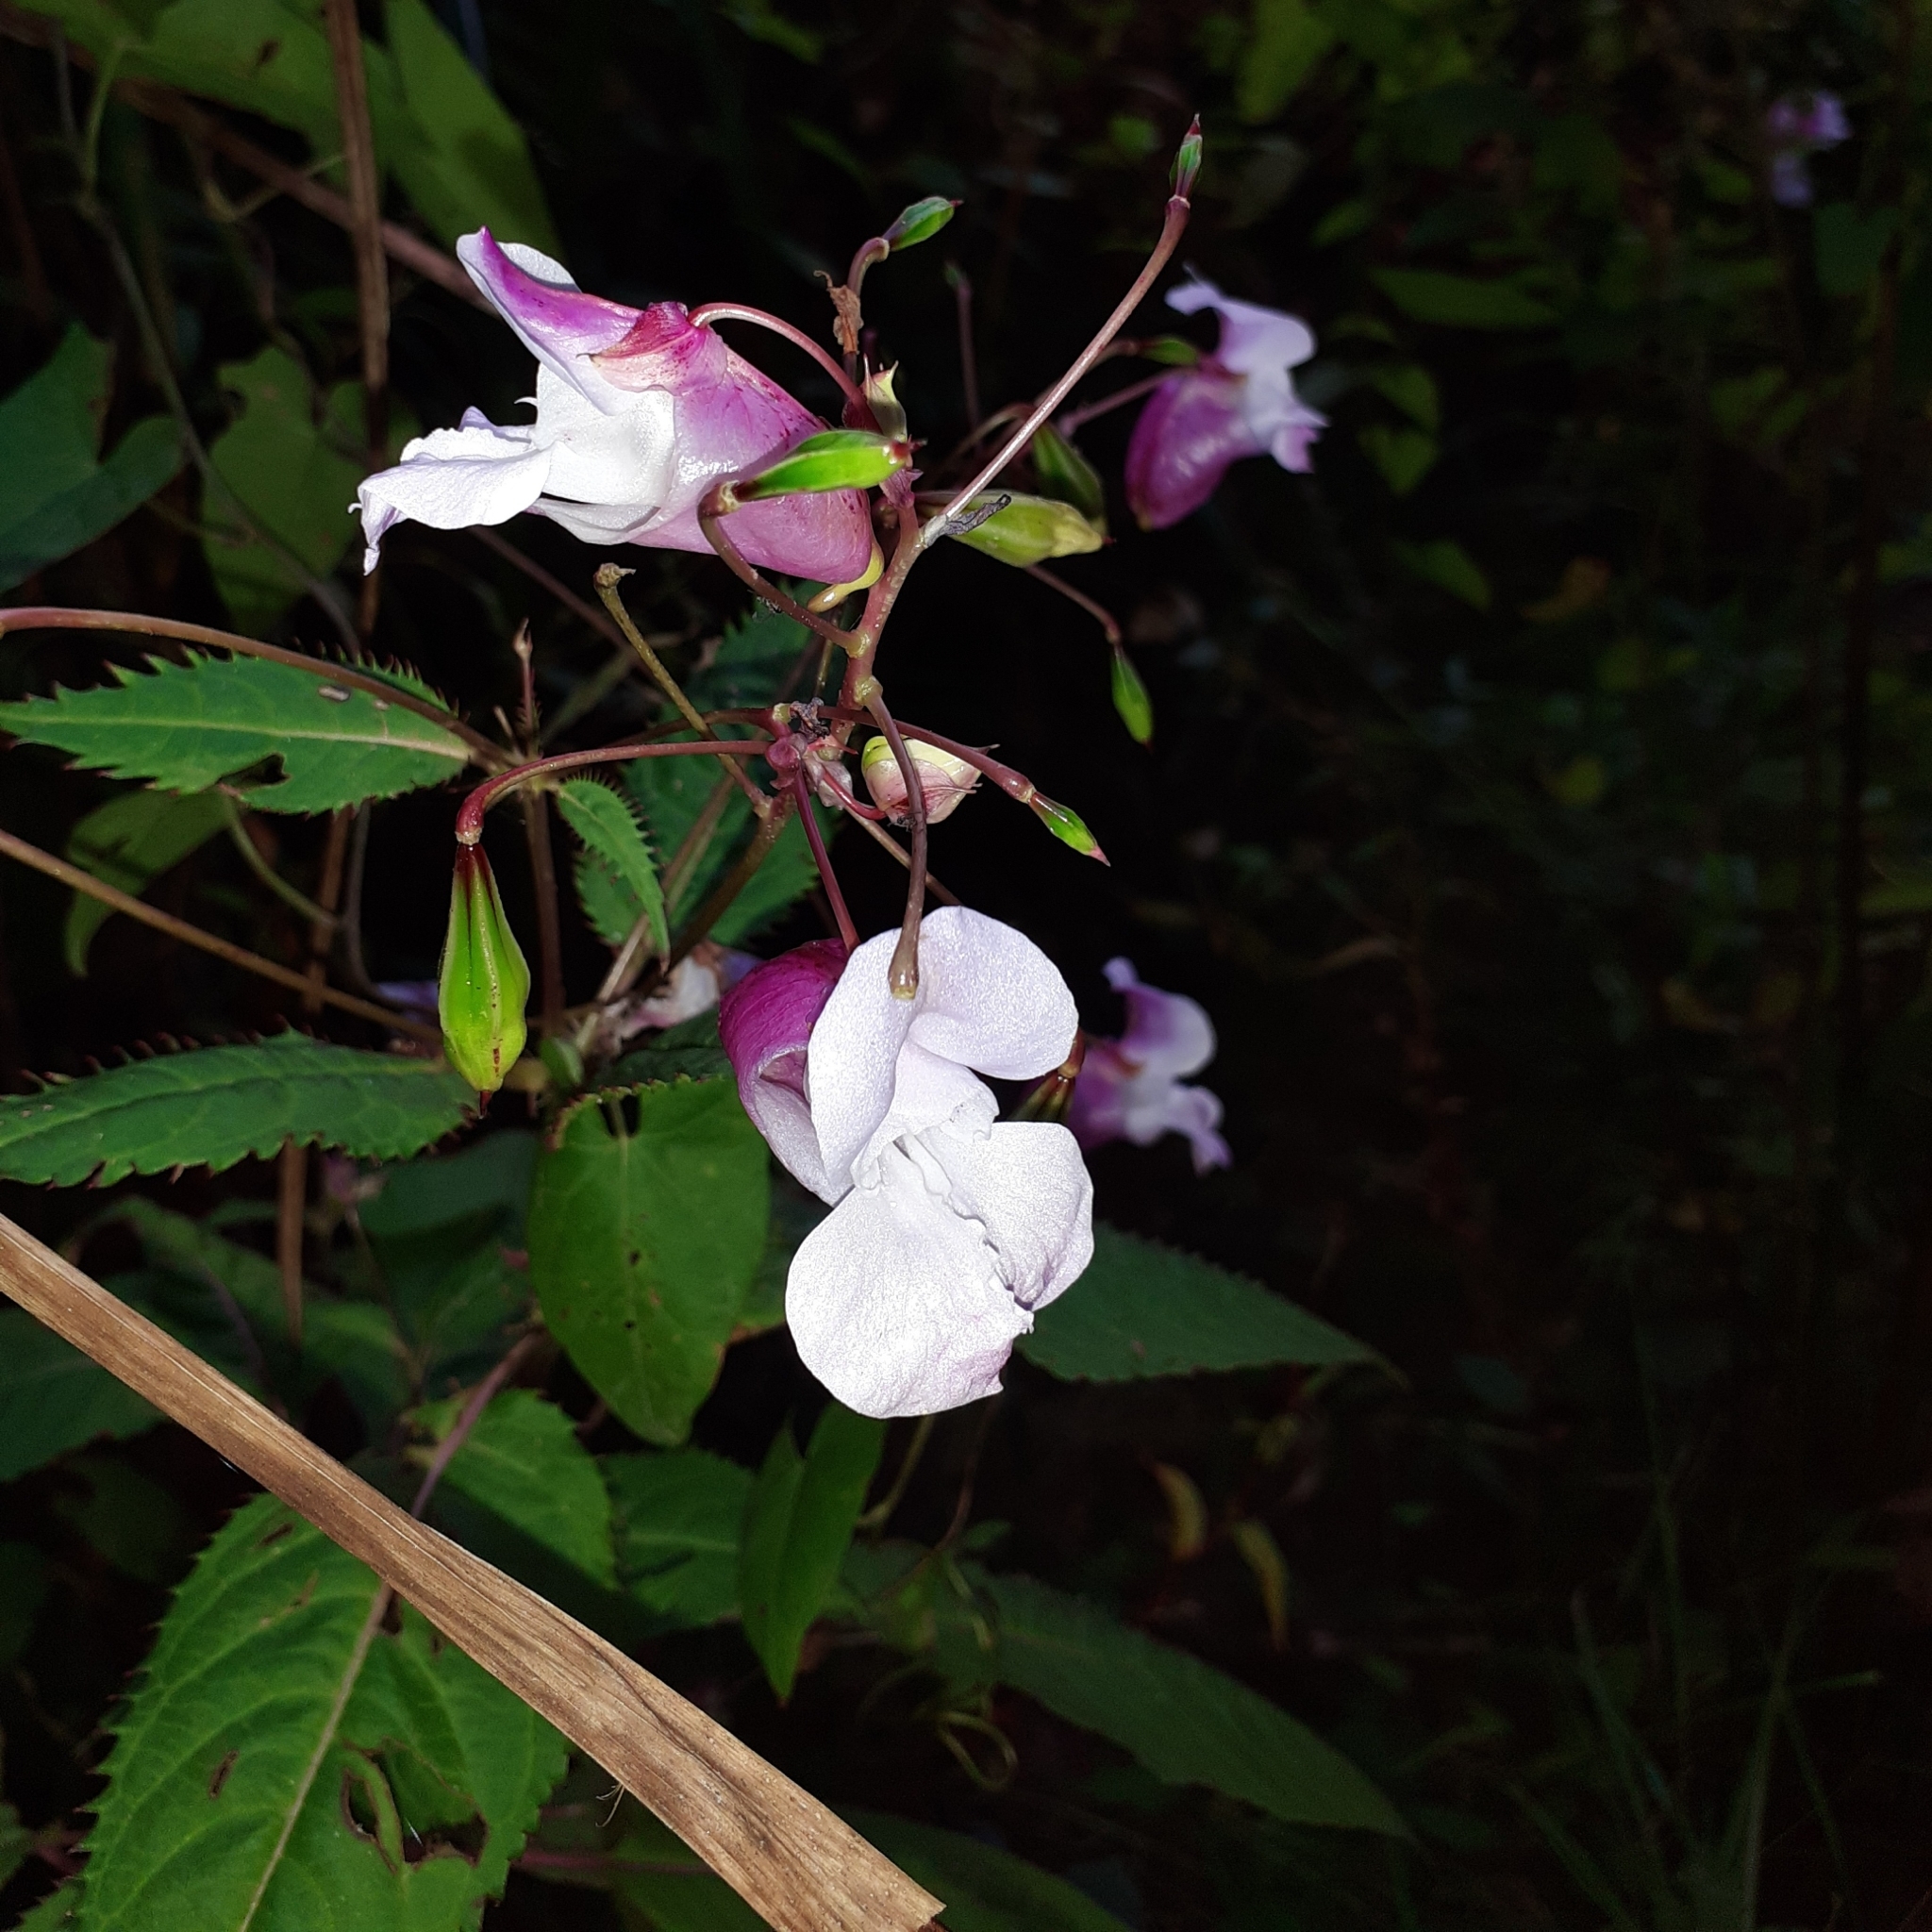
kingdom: Plantae
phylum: Tracheophyta
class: Magnoliopsida
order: Ericales
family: Balsaminaceae
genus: Impatiens
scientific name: Impatiens glandulifera
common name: Himalayan balsam
